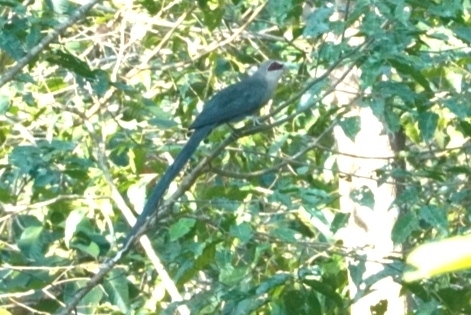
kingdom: Animalia
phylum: Chordata
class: Aves
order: Cuculiformes
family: Cuculidae
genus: Rhopodytes
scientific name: Rhopodytes tristis
